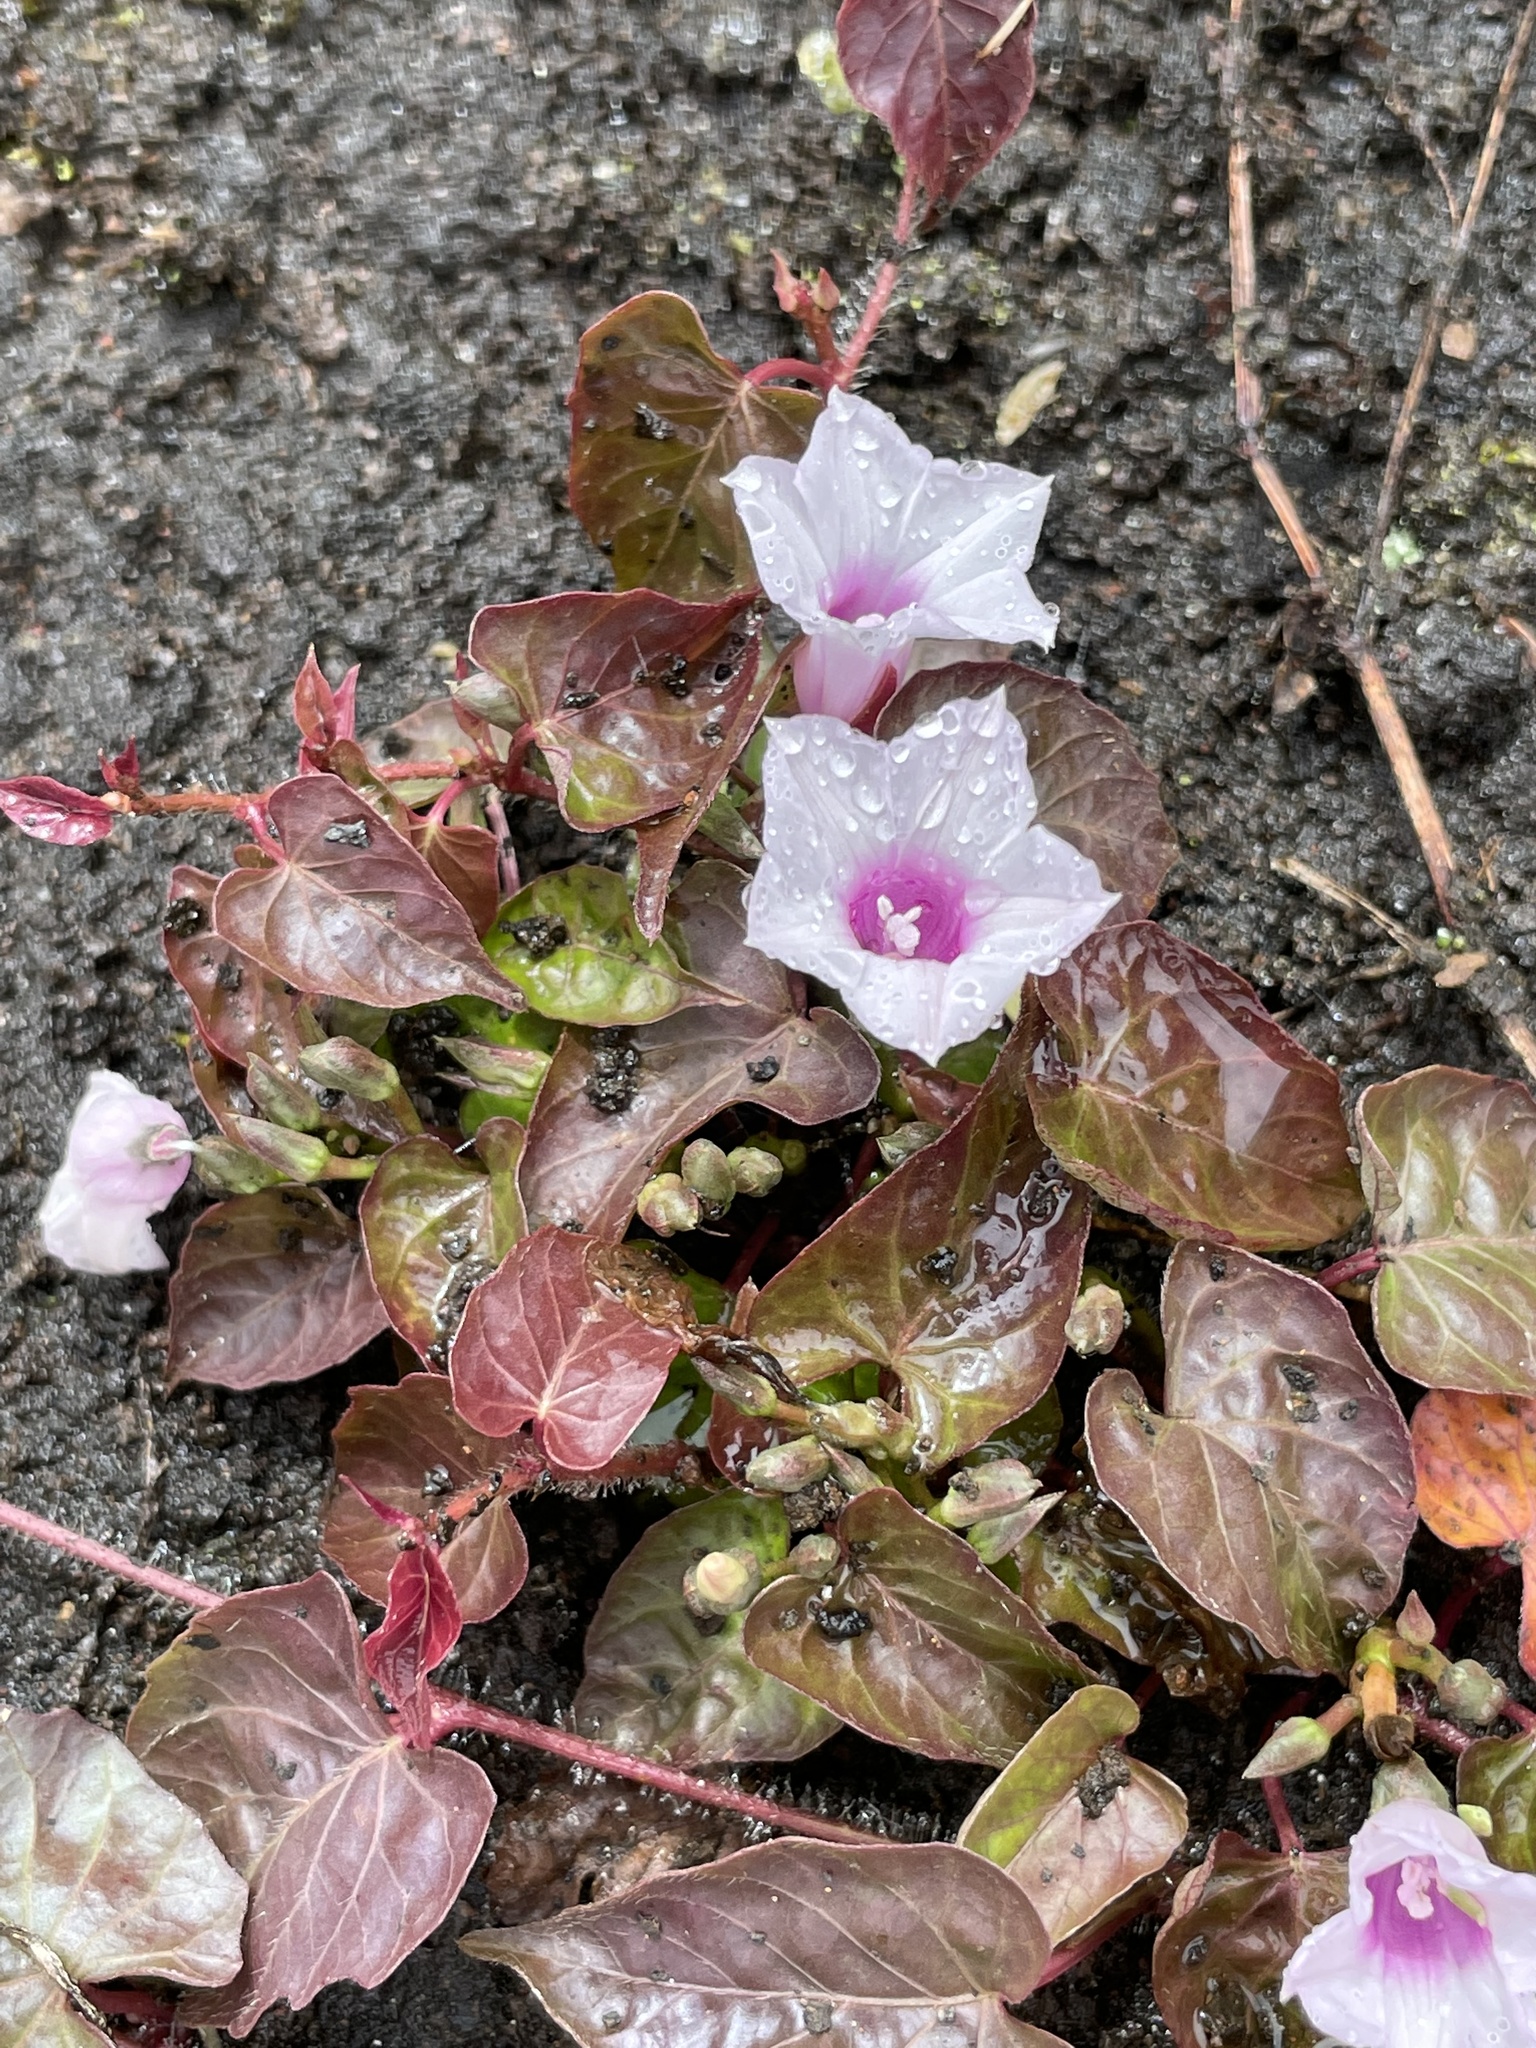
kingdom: Plantae
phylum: Tracheophyta
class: Magnoliopsida
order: Solanales
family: Convolvulaceae
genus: Ipomoea
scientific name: Ipomoea incarnata
